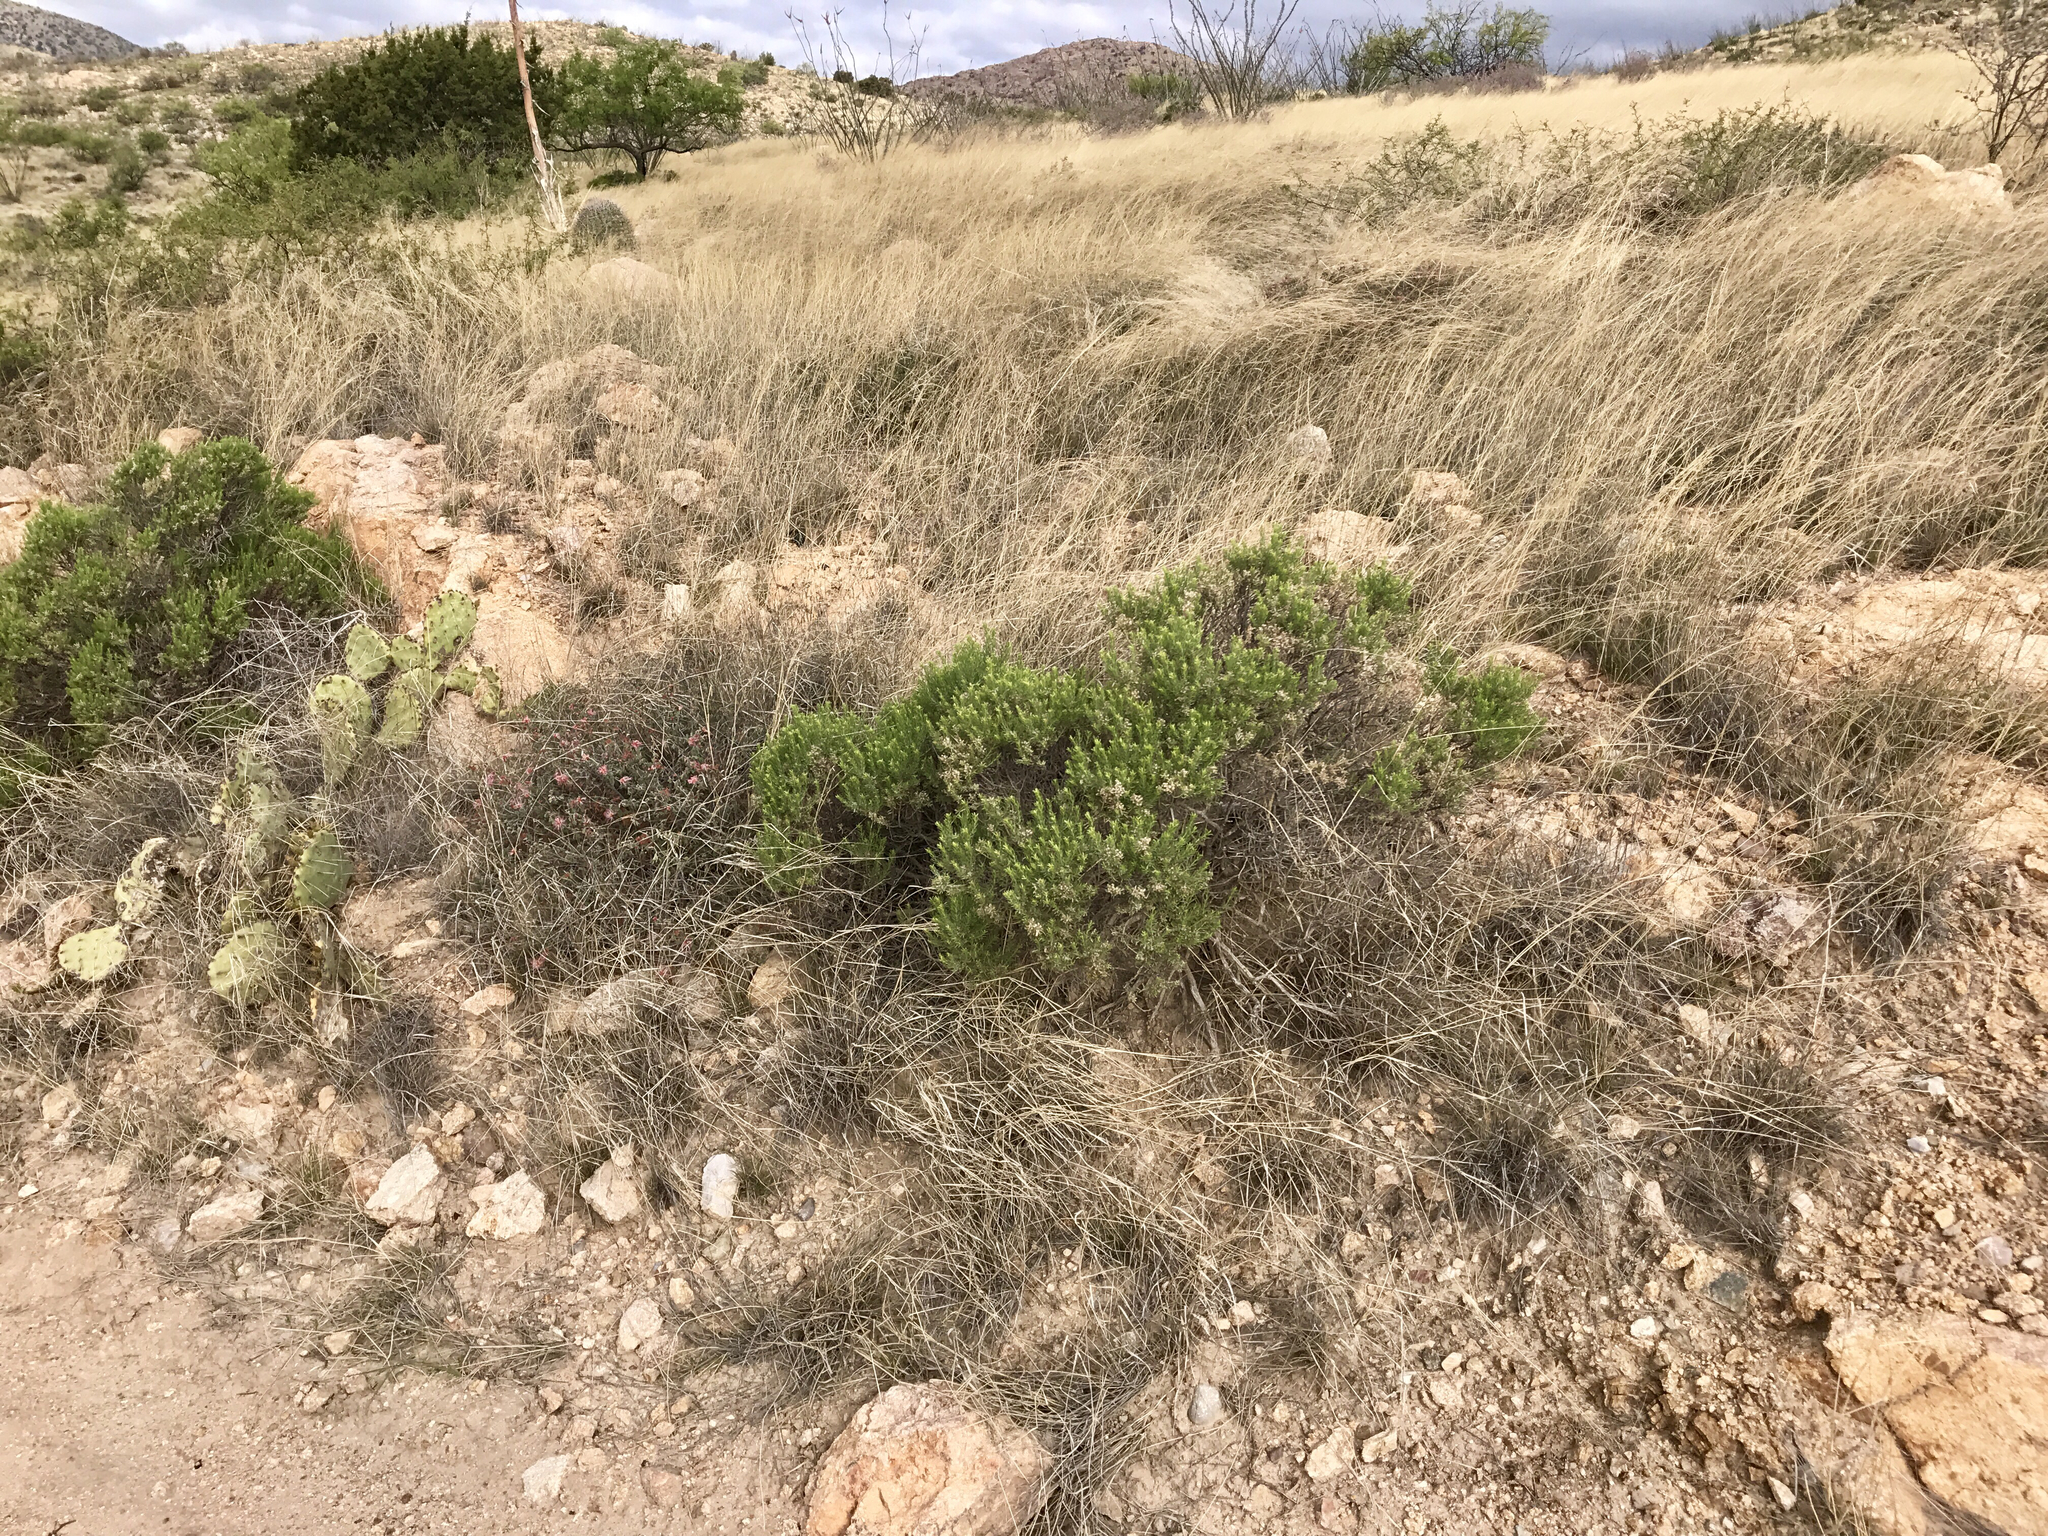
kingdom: Plantae
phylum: Tracheophyta
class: Magnoliopsida
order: Asterales
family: Asteraceae
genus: Ericameria
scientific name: Ericameria laricifolia
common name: Turpentine-bush
